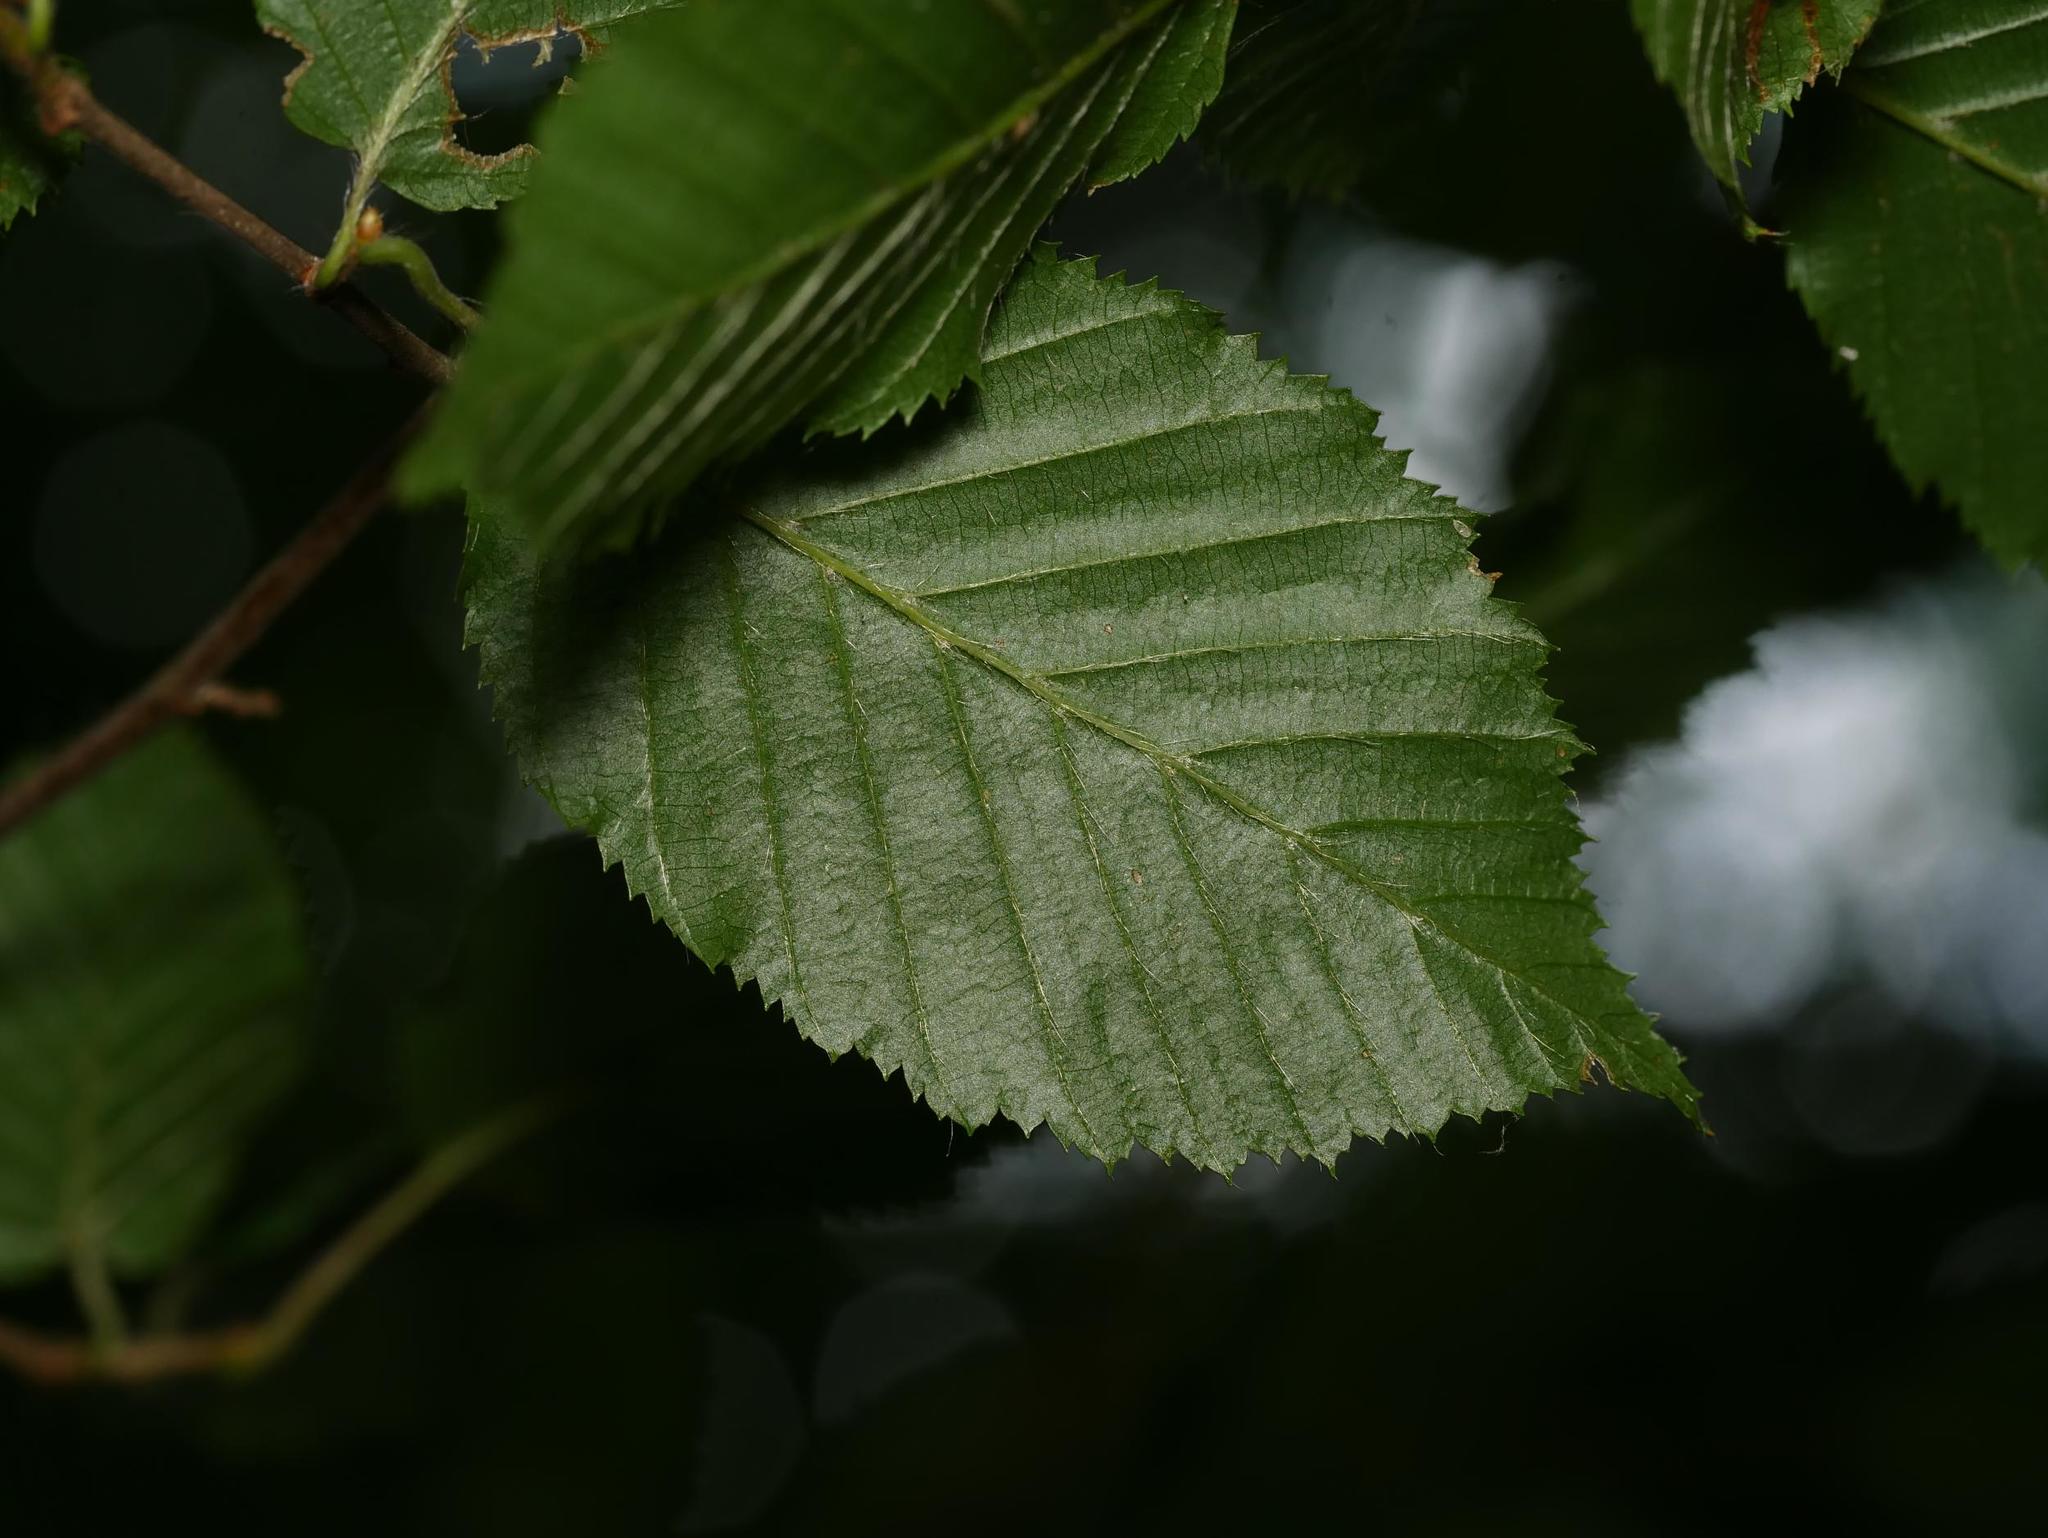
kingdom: Plantae
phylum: Tracheophyta
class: Magnoliopsida
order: Fagales
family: Betulaceae
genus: Carpinus
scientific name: Carpinus betulus
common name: Hornbeam
